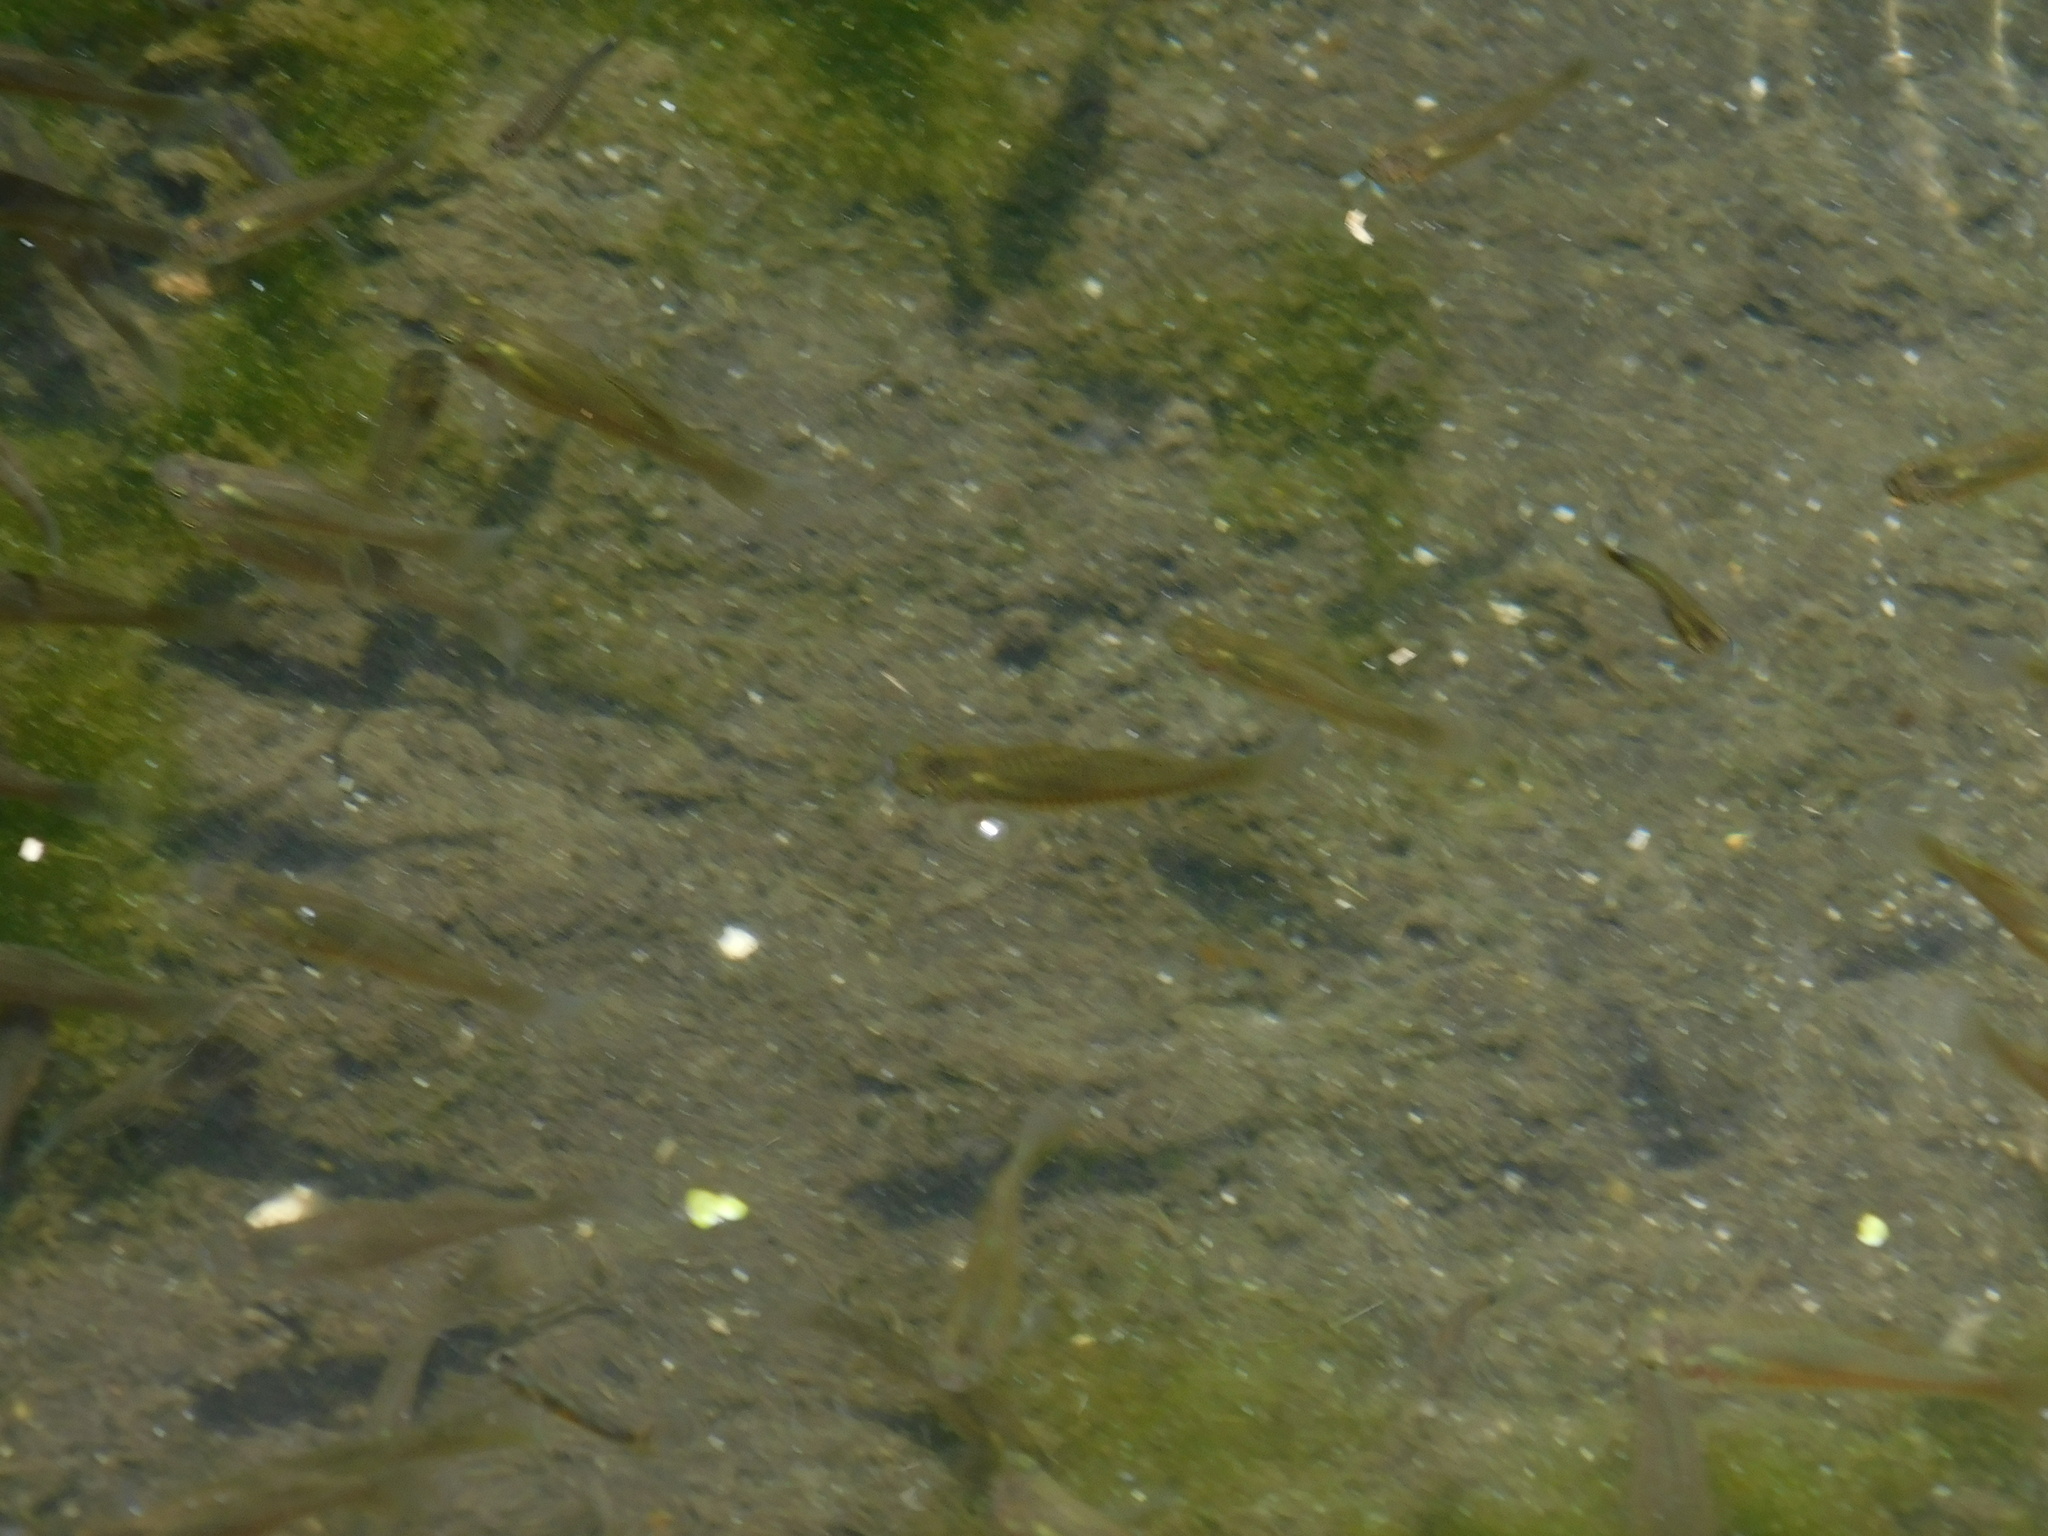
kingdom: Animalia
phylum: Chordata
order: Cyprinodontiformes
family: Poeciliidae
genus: Xiphophorus
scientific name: Xiphophorus hellerii
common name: Green swordtail
